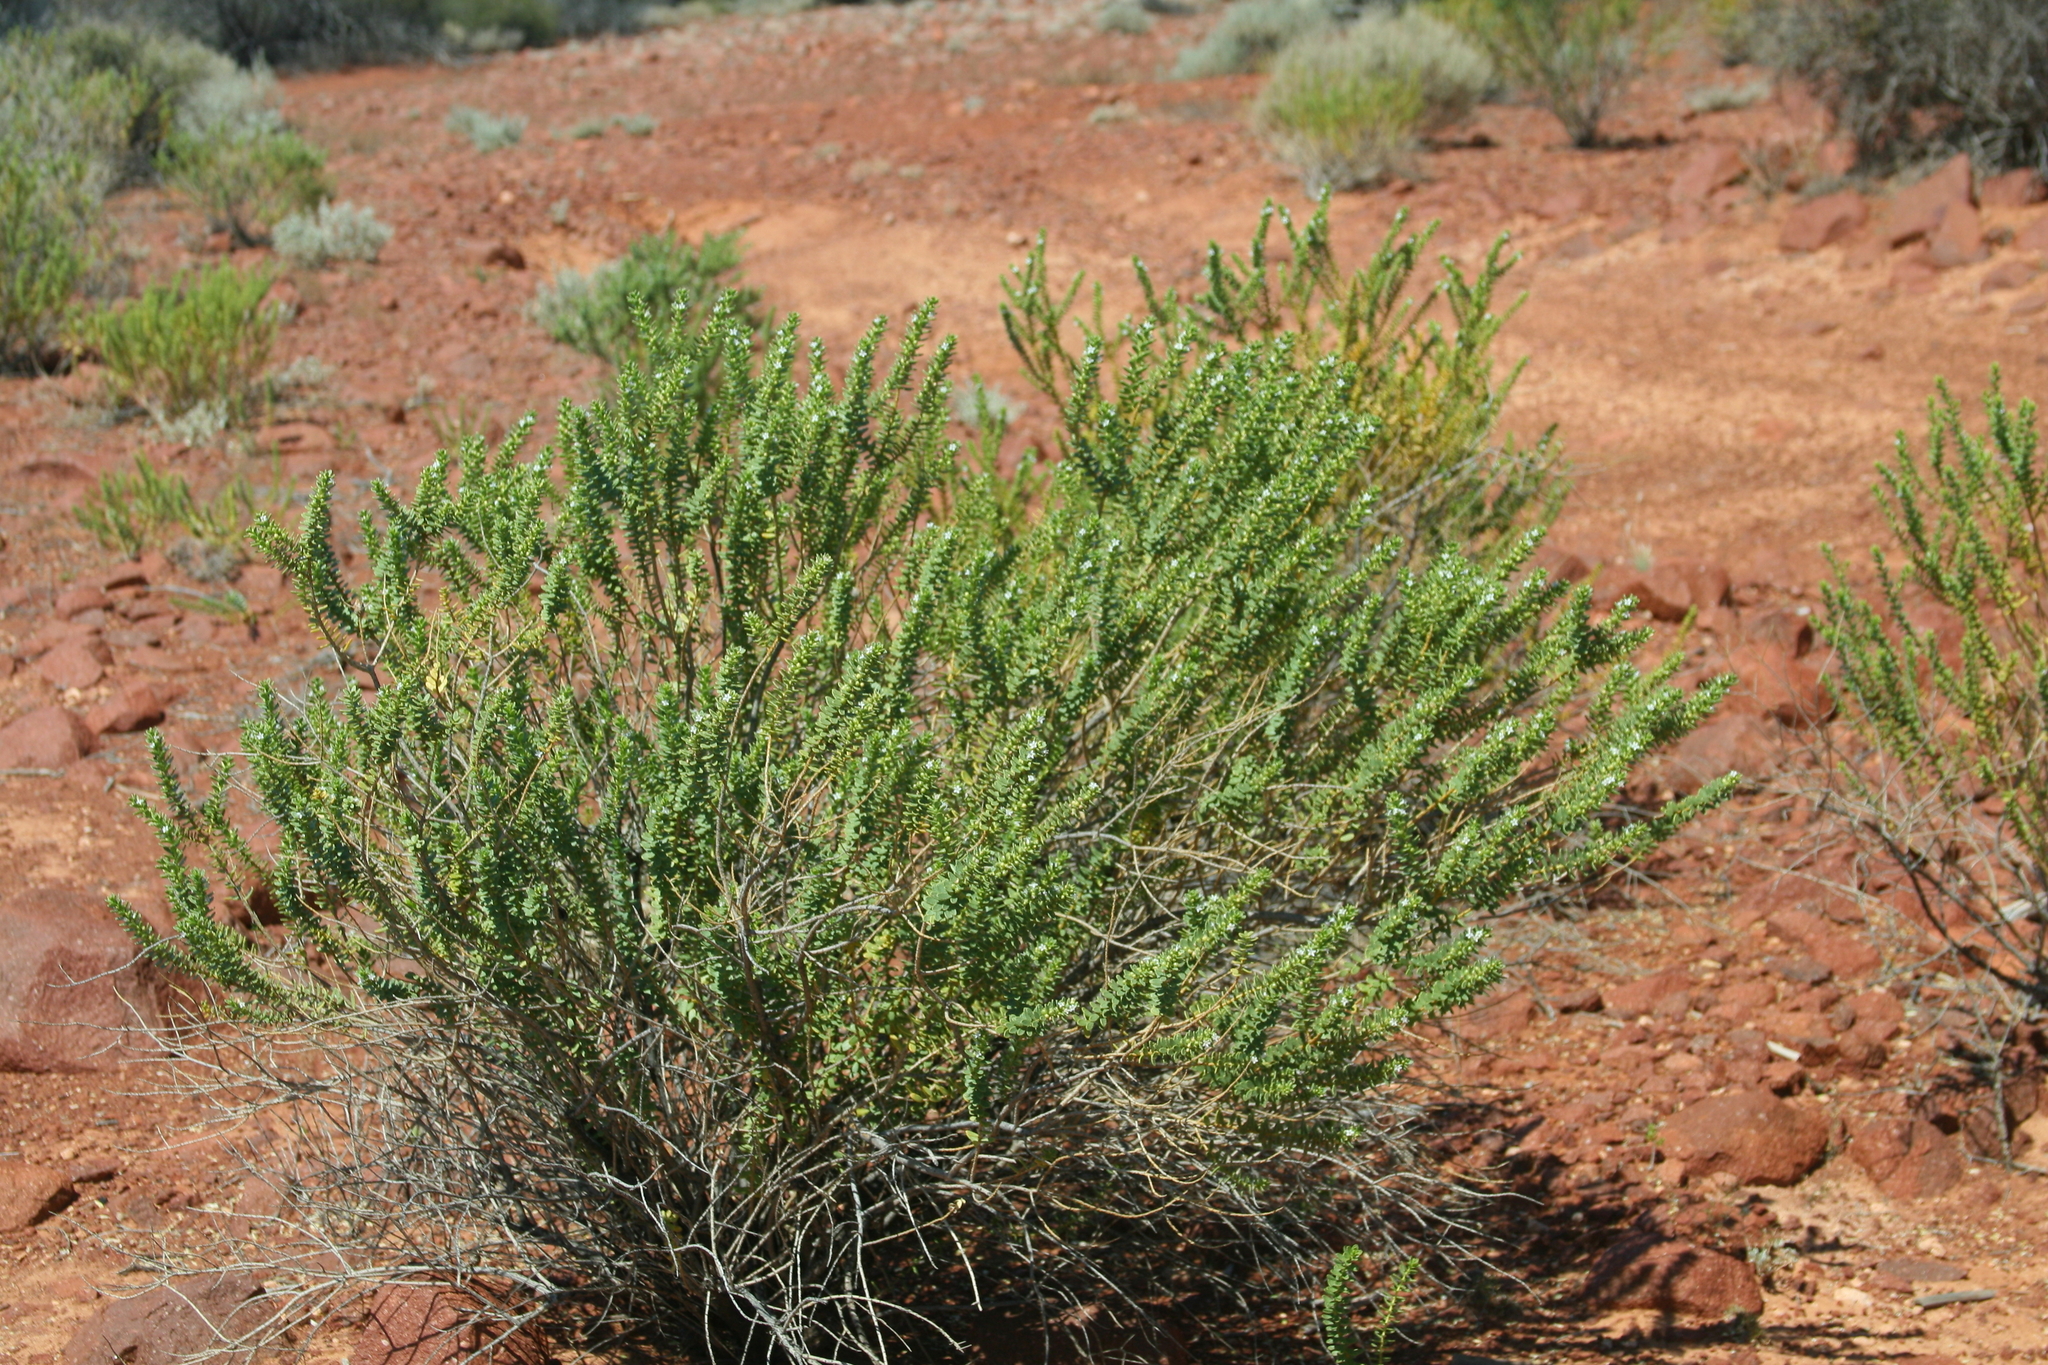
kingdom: Plantae
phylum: Tracheophyta
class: Magnoliopsida
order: Lamiales
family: Scrophulariaceae
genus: Myoporum
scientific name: Myoporum brevipes
